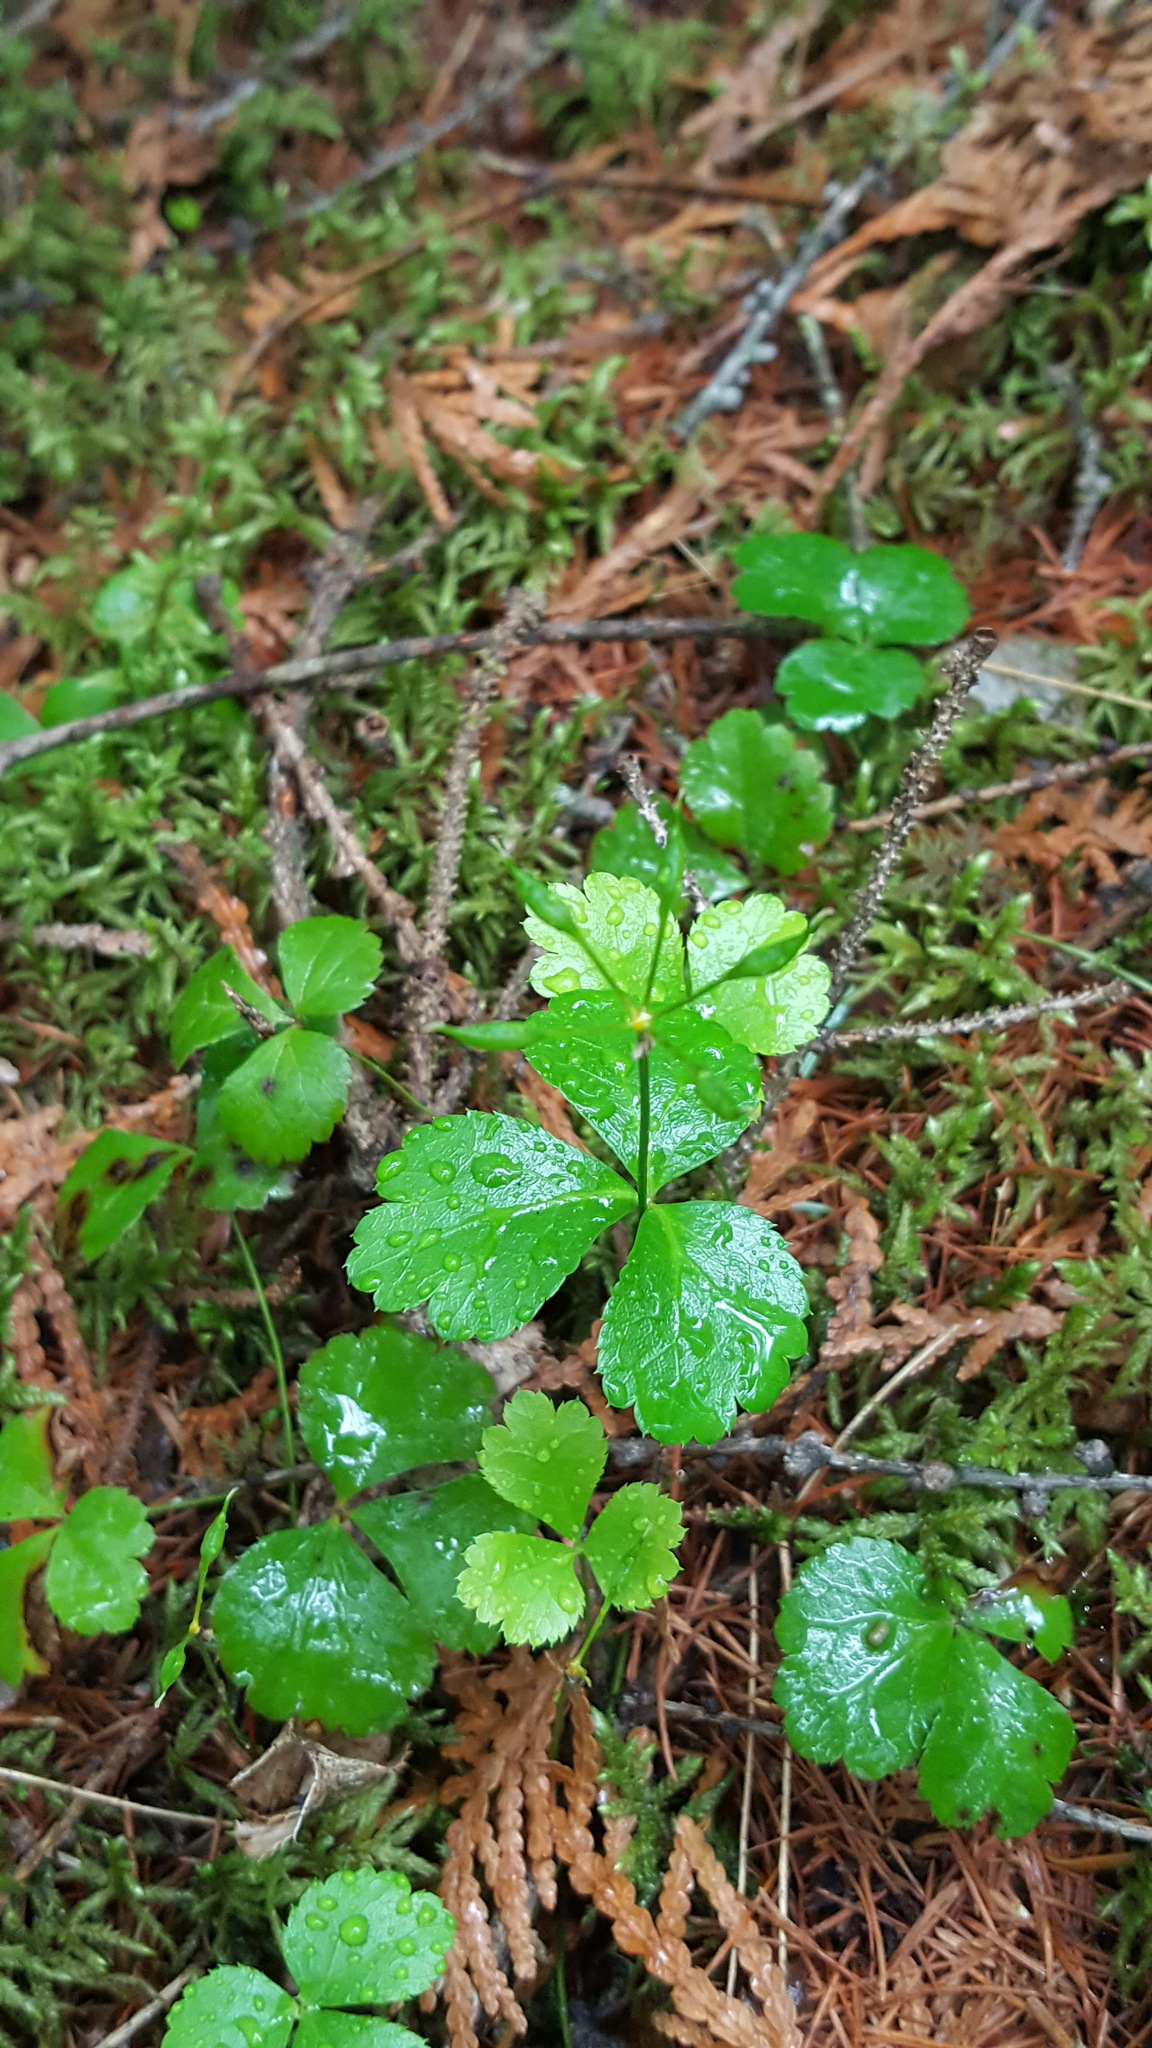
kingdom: Plantae
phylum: Tracheophyta
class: Magnoliopsida
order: Ranunculales
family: Ranunculaceae
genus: Coptis
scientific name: Coptis trifolia
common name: Canker-root
